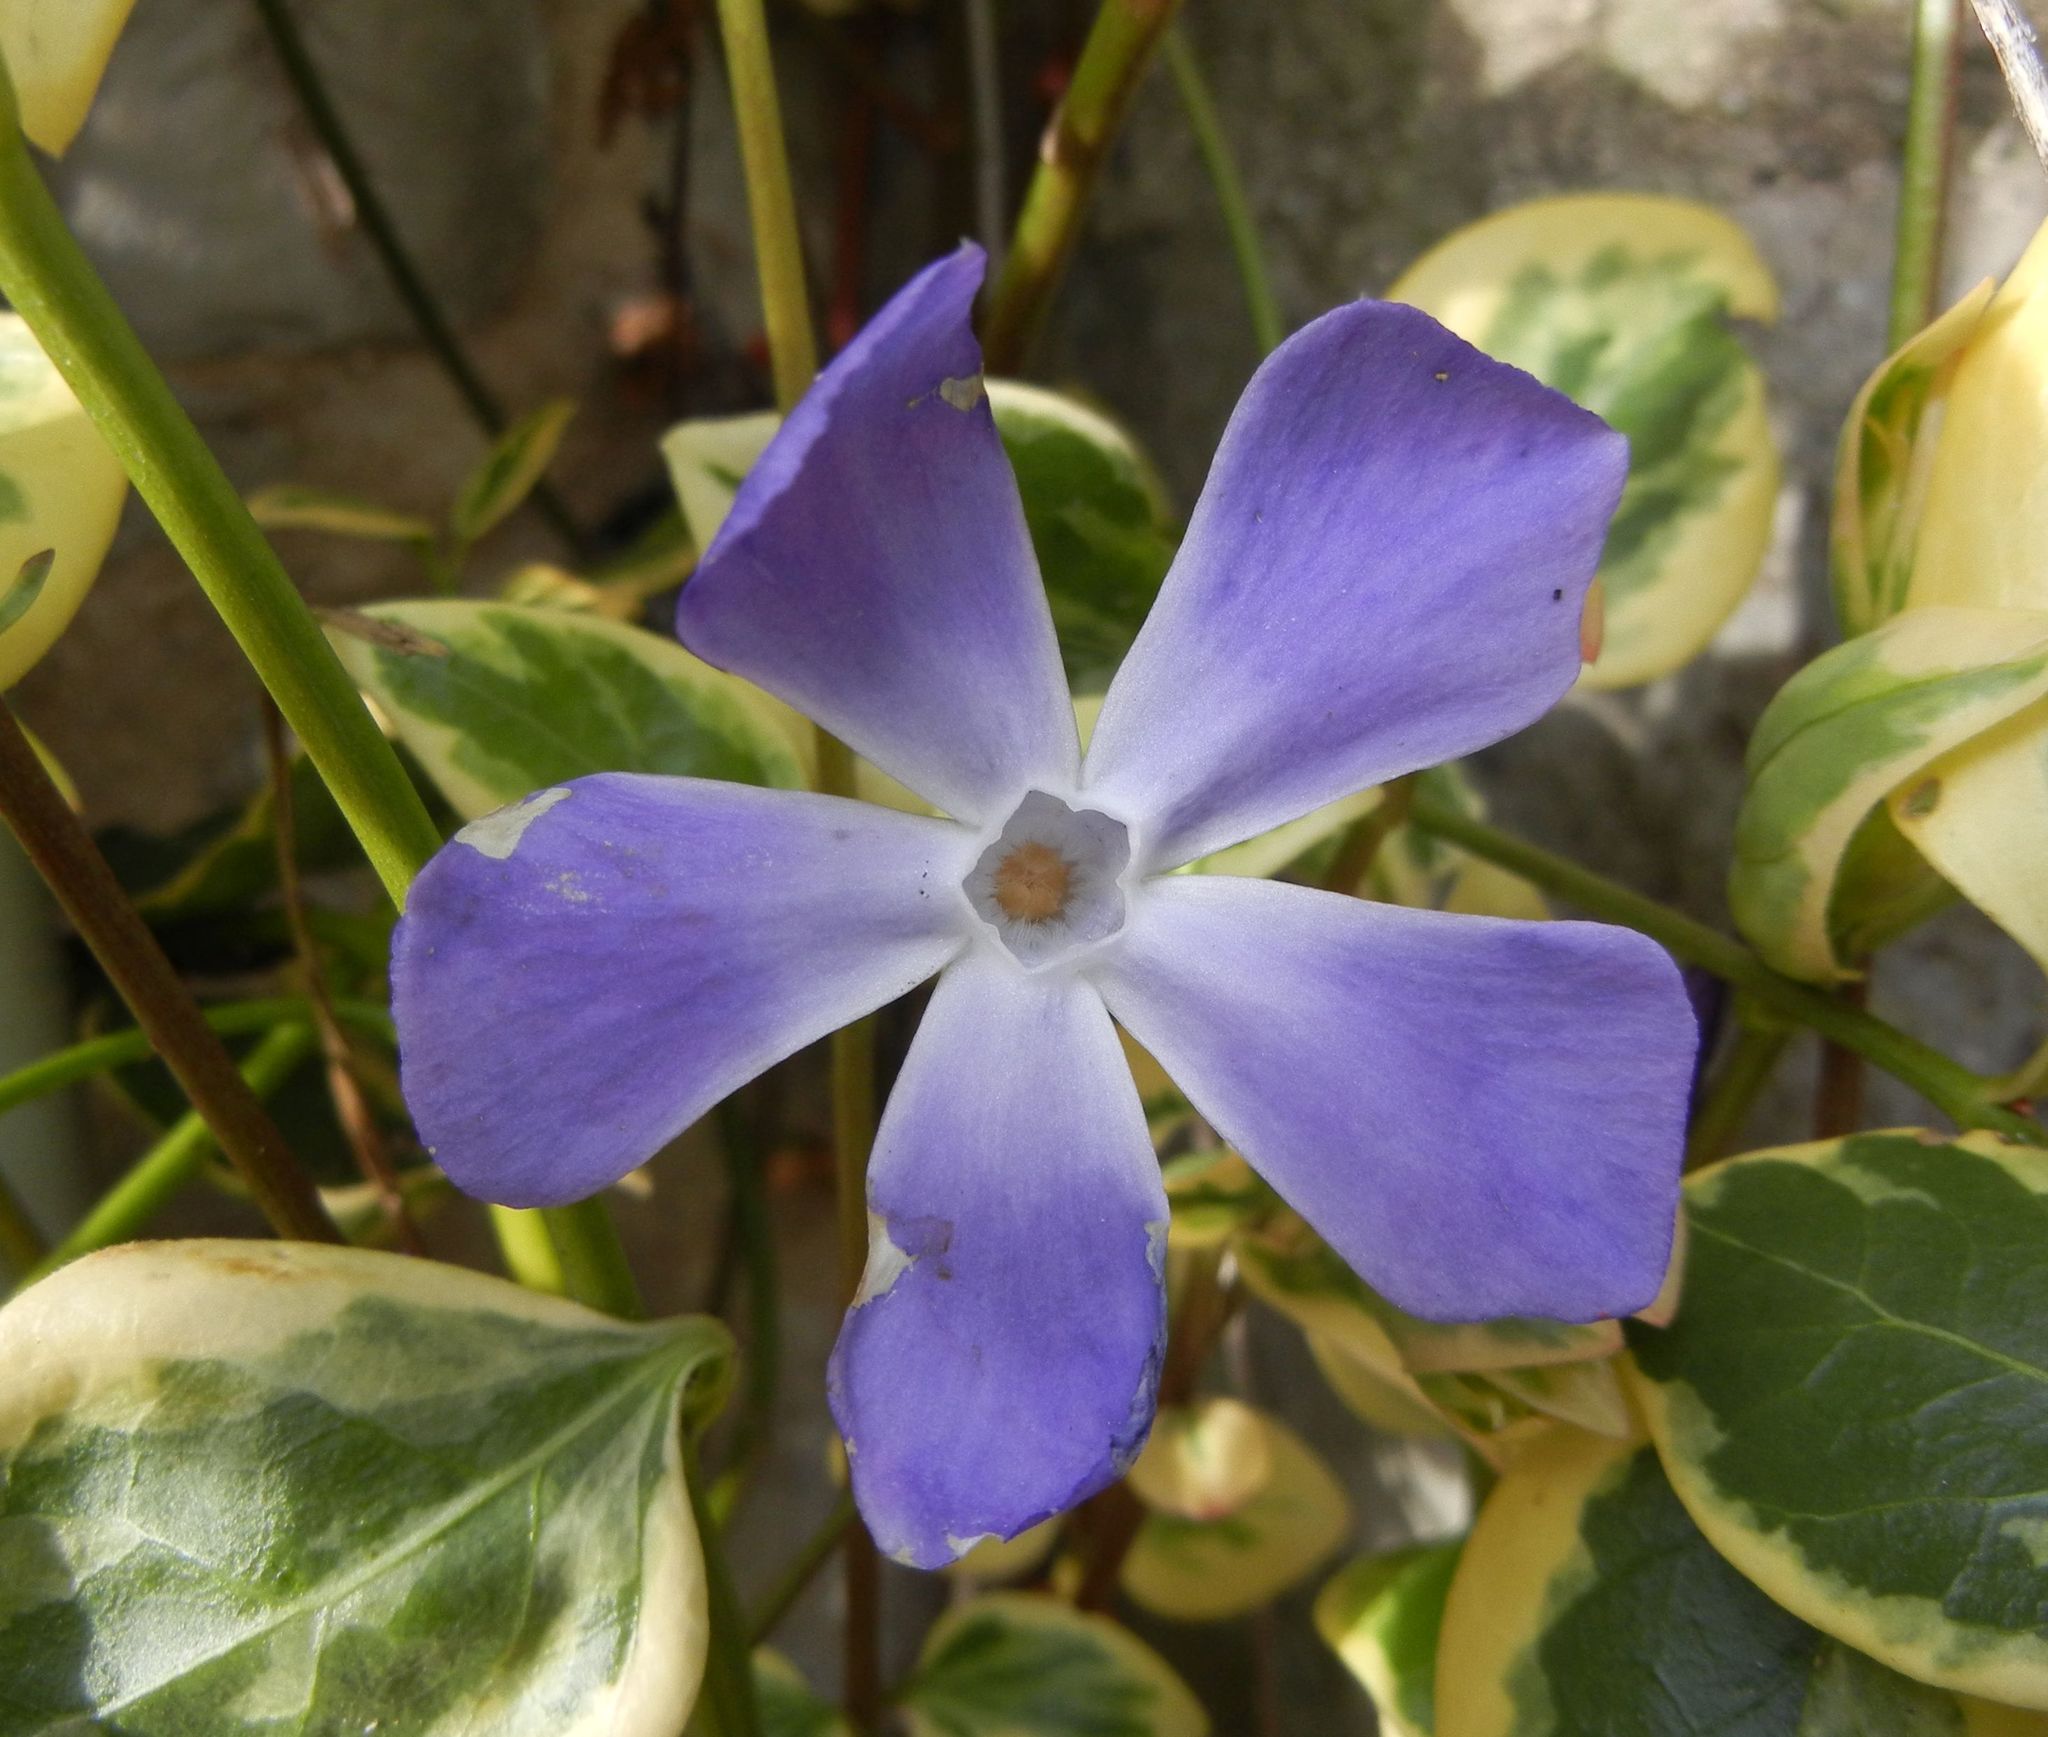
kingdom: Plantae
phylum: Tracheophyta
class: Magnoliopsida
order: Gentianales
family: Apocynaceae
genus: Vinca
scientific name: Vinca major
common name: Greater periwinkle
